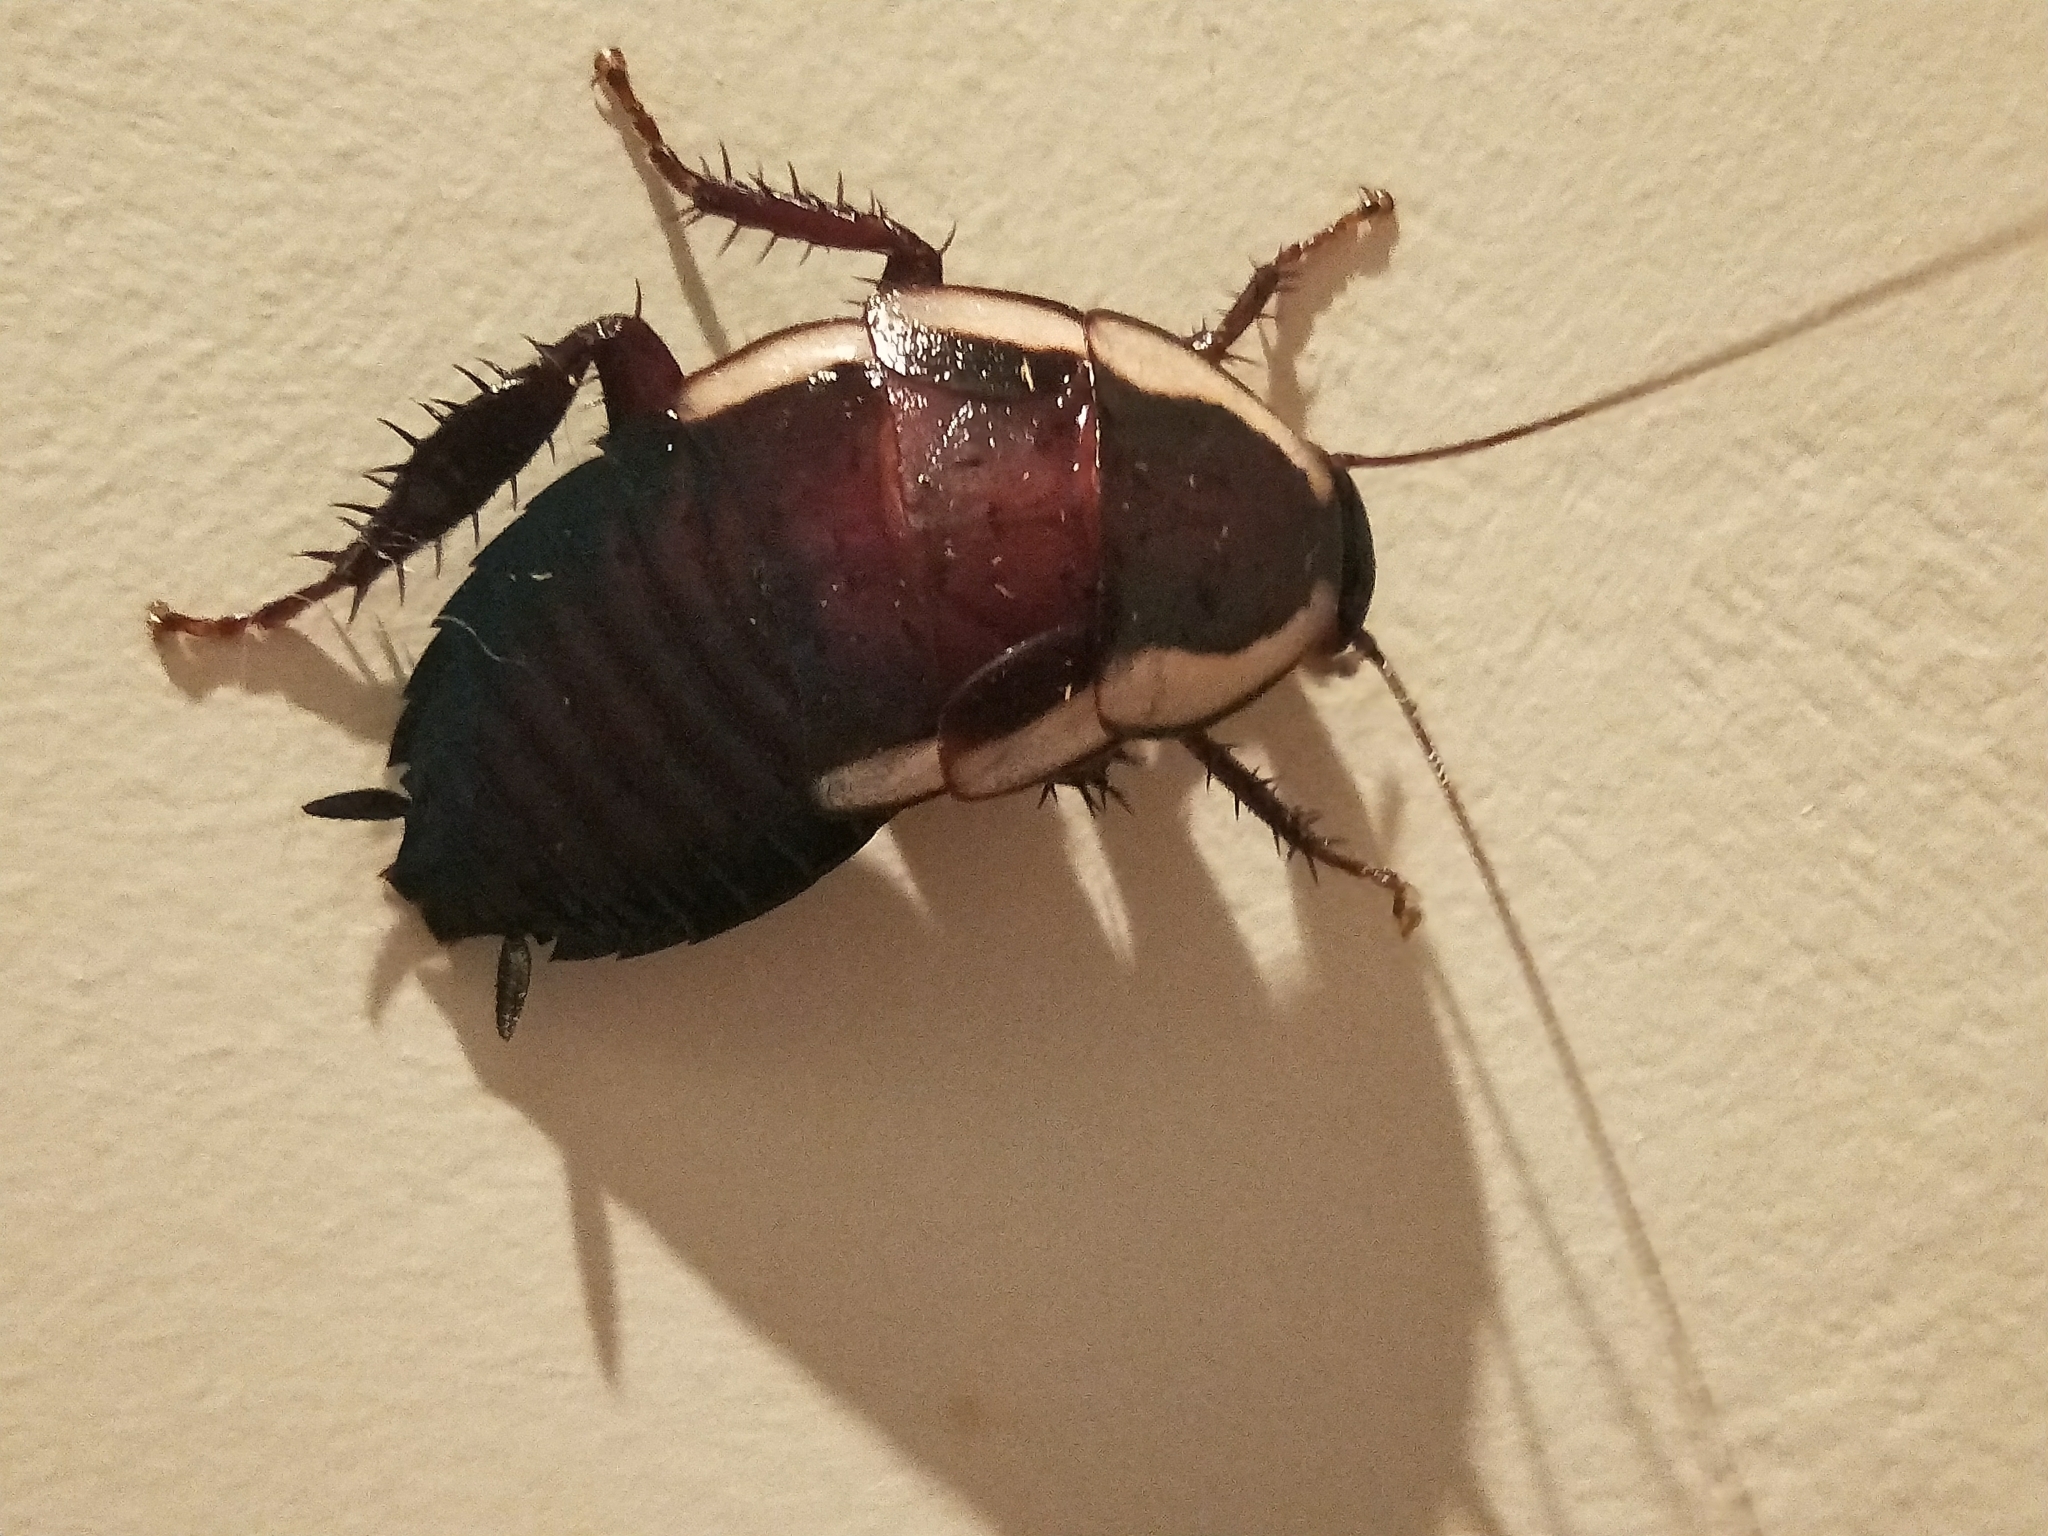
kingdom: Animalia
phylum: Arthropoda
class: Insecta
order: Blattodea
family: Blattidae
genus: Drymaplaneta
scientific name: Drymaplaneta semivitta
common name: Gisborne cockroach
